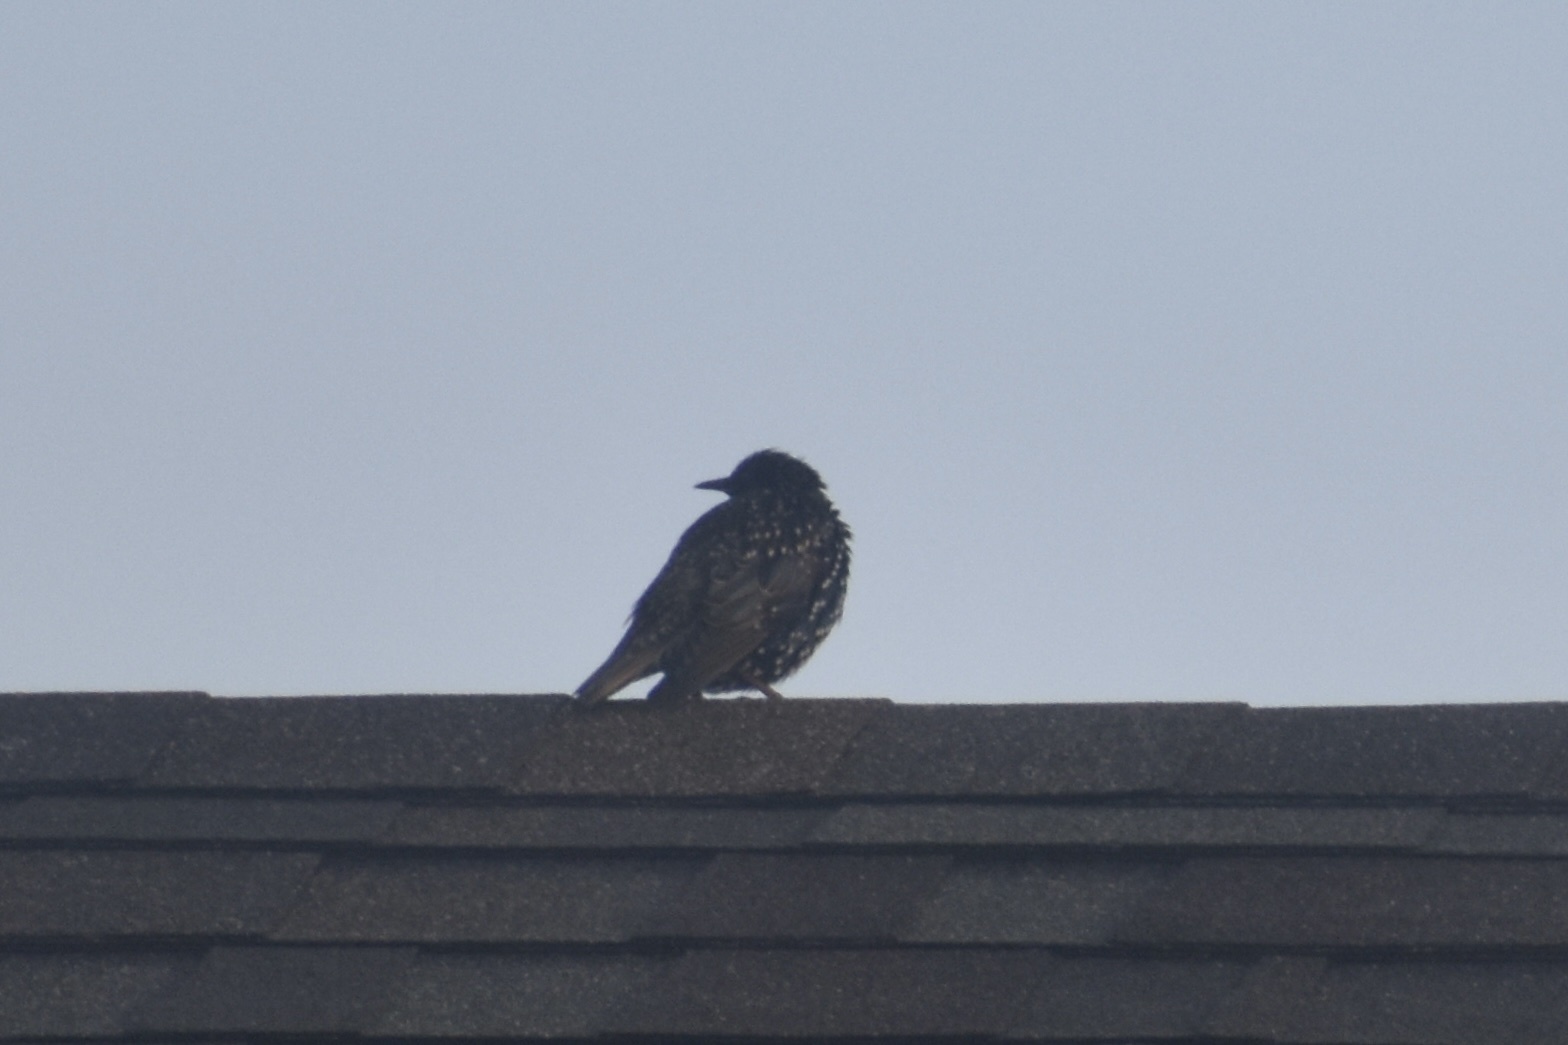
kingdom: Animalia
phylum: Chordata
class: Aves
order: Passeriformes
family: Sturnidae
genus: Sturnus
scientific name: Sturnus vulgaris
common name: Common starling
